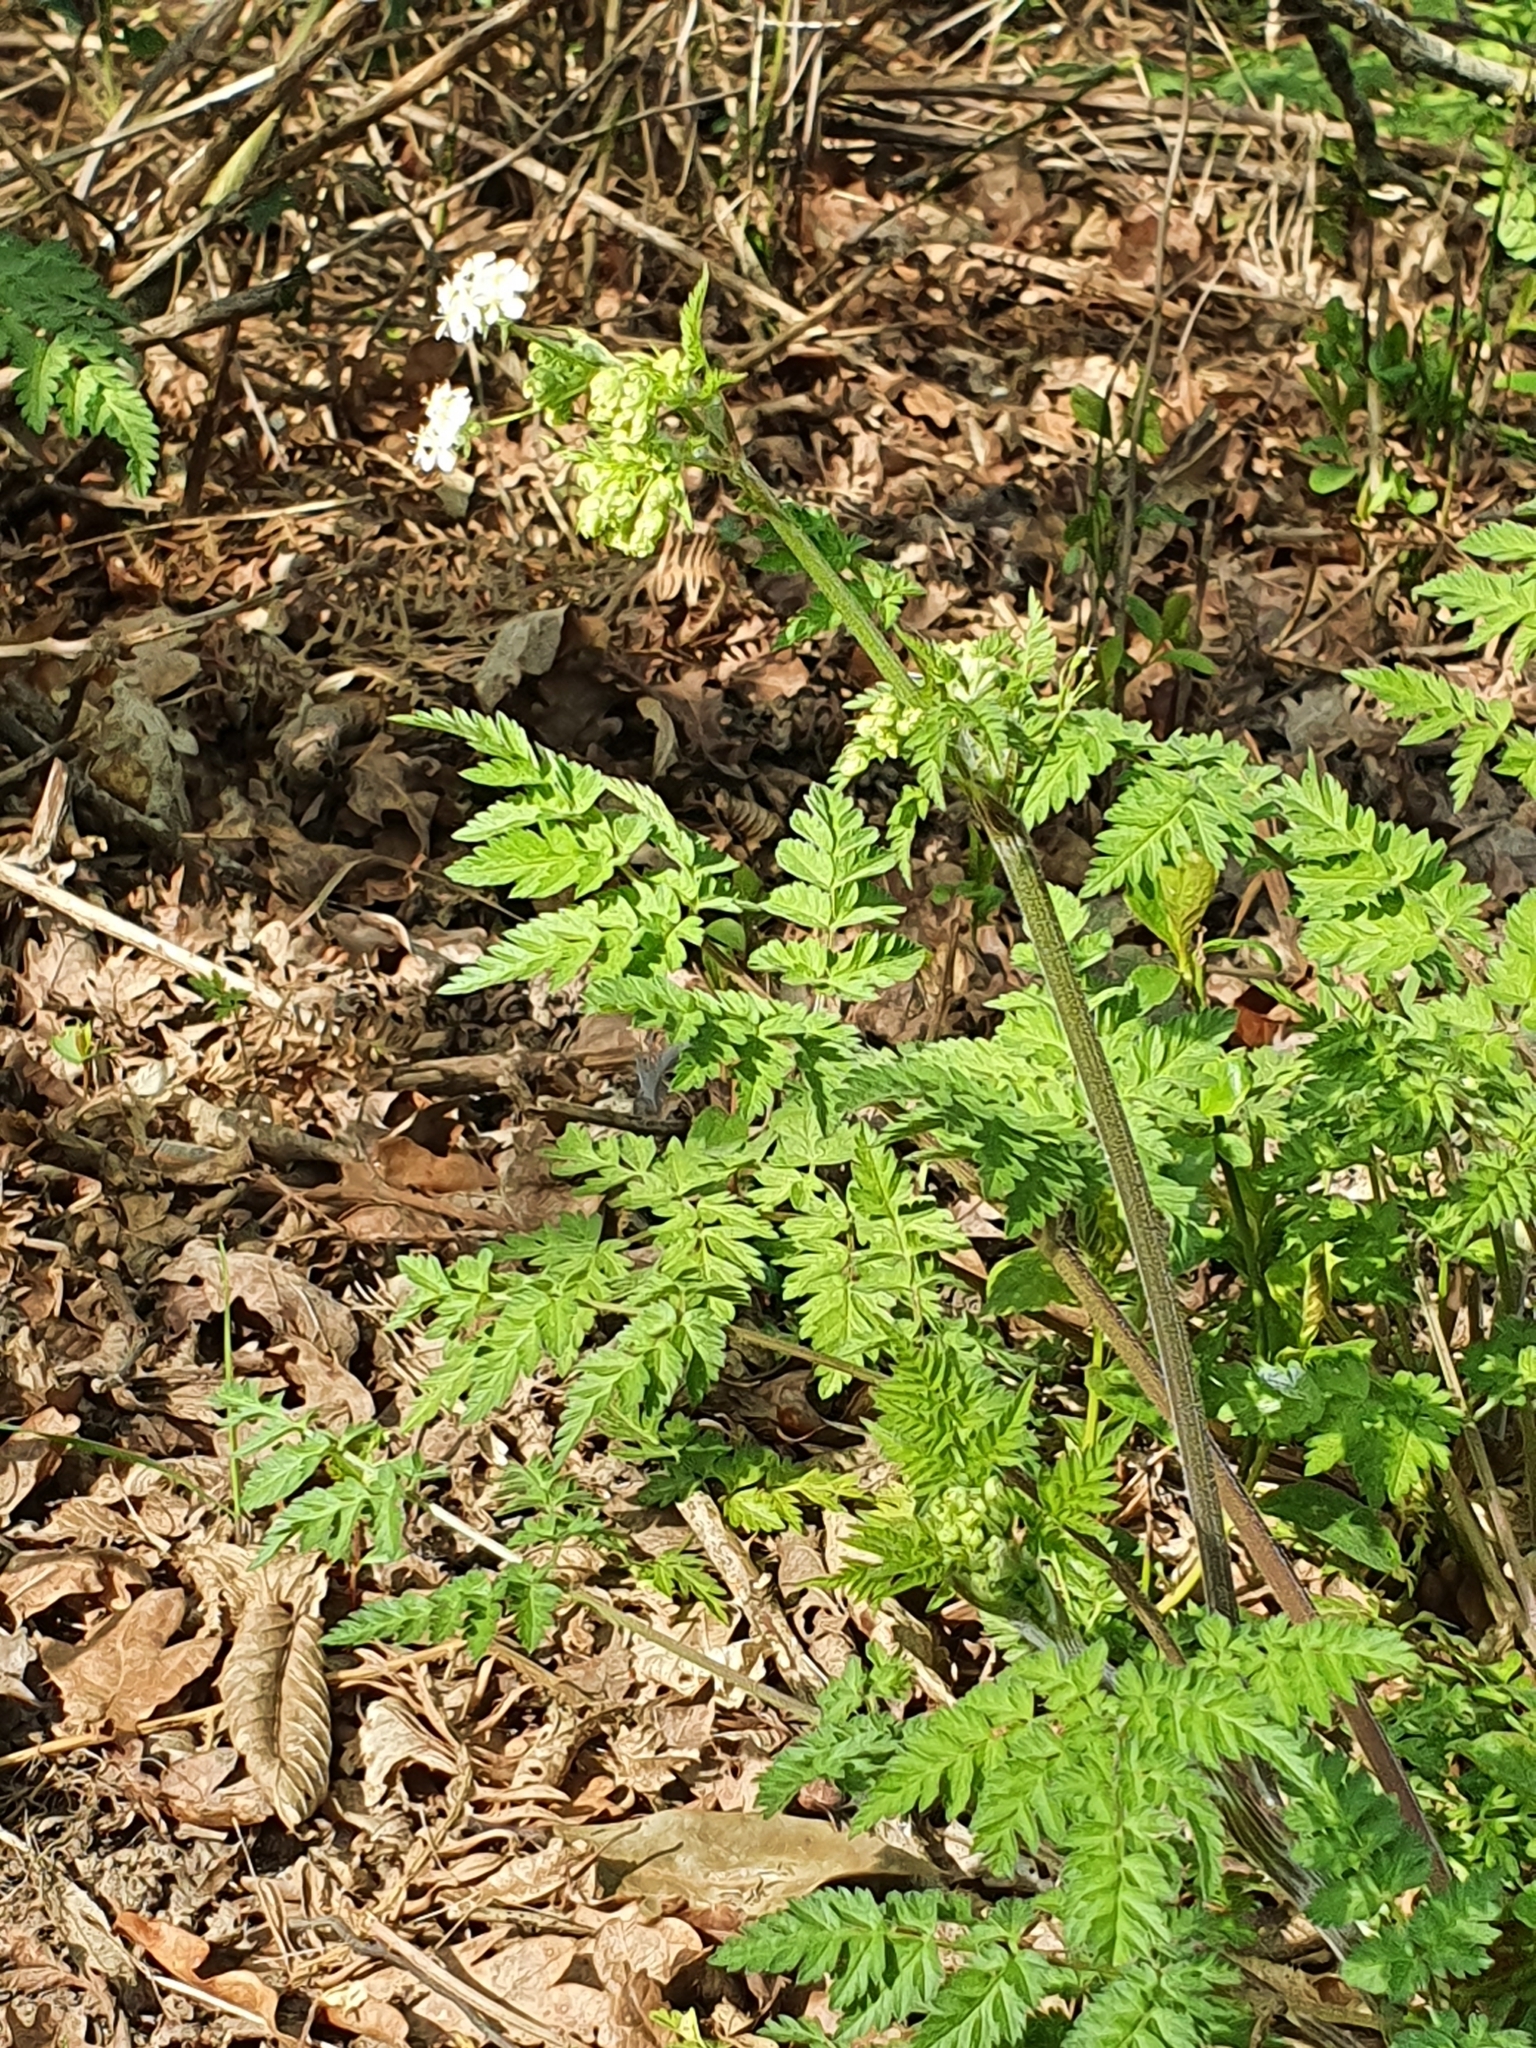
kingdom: Plantae
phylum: Tracheophyta
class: Magnoliopsida
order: Apiales
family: Apiaceae
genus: Anthriscus
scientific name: Anthriscus sylvestris
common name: Cow parsley
